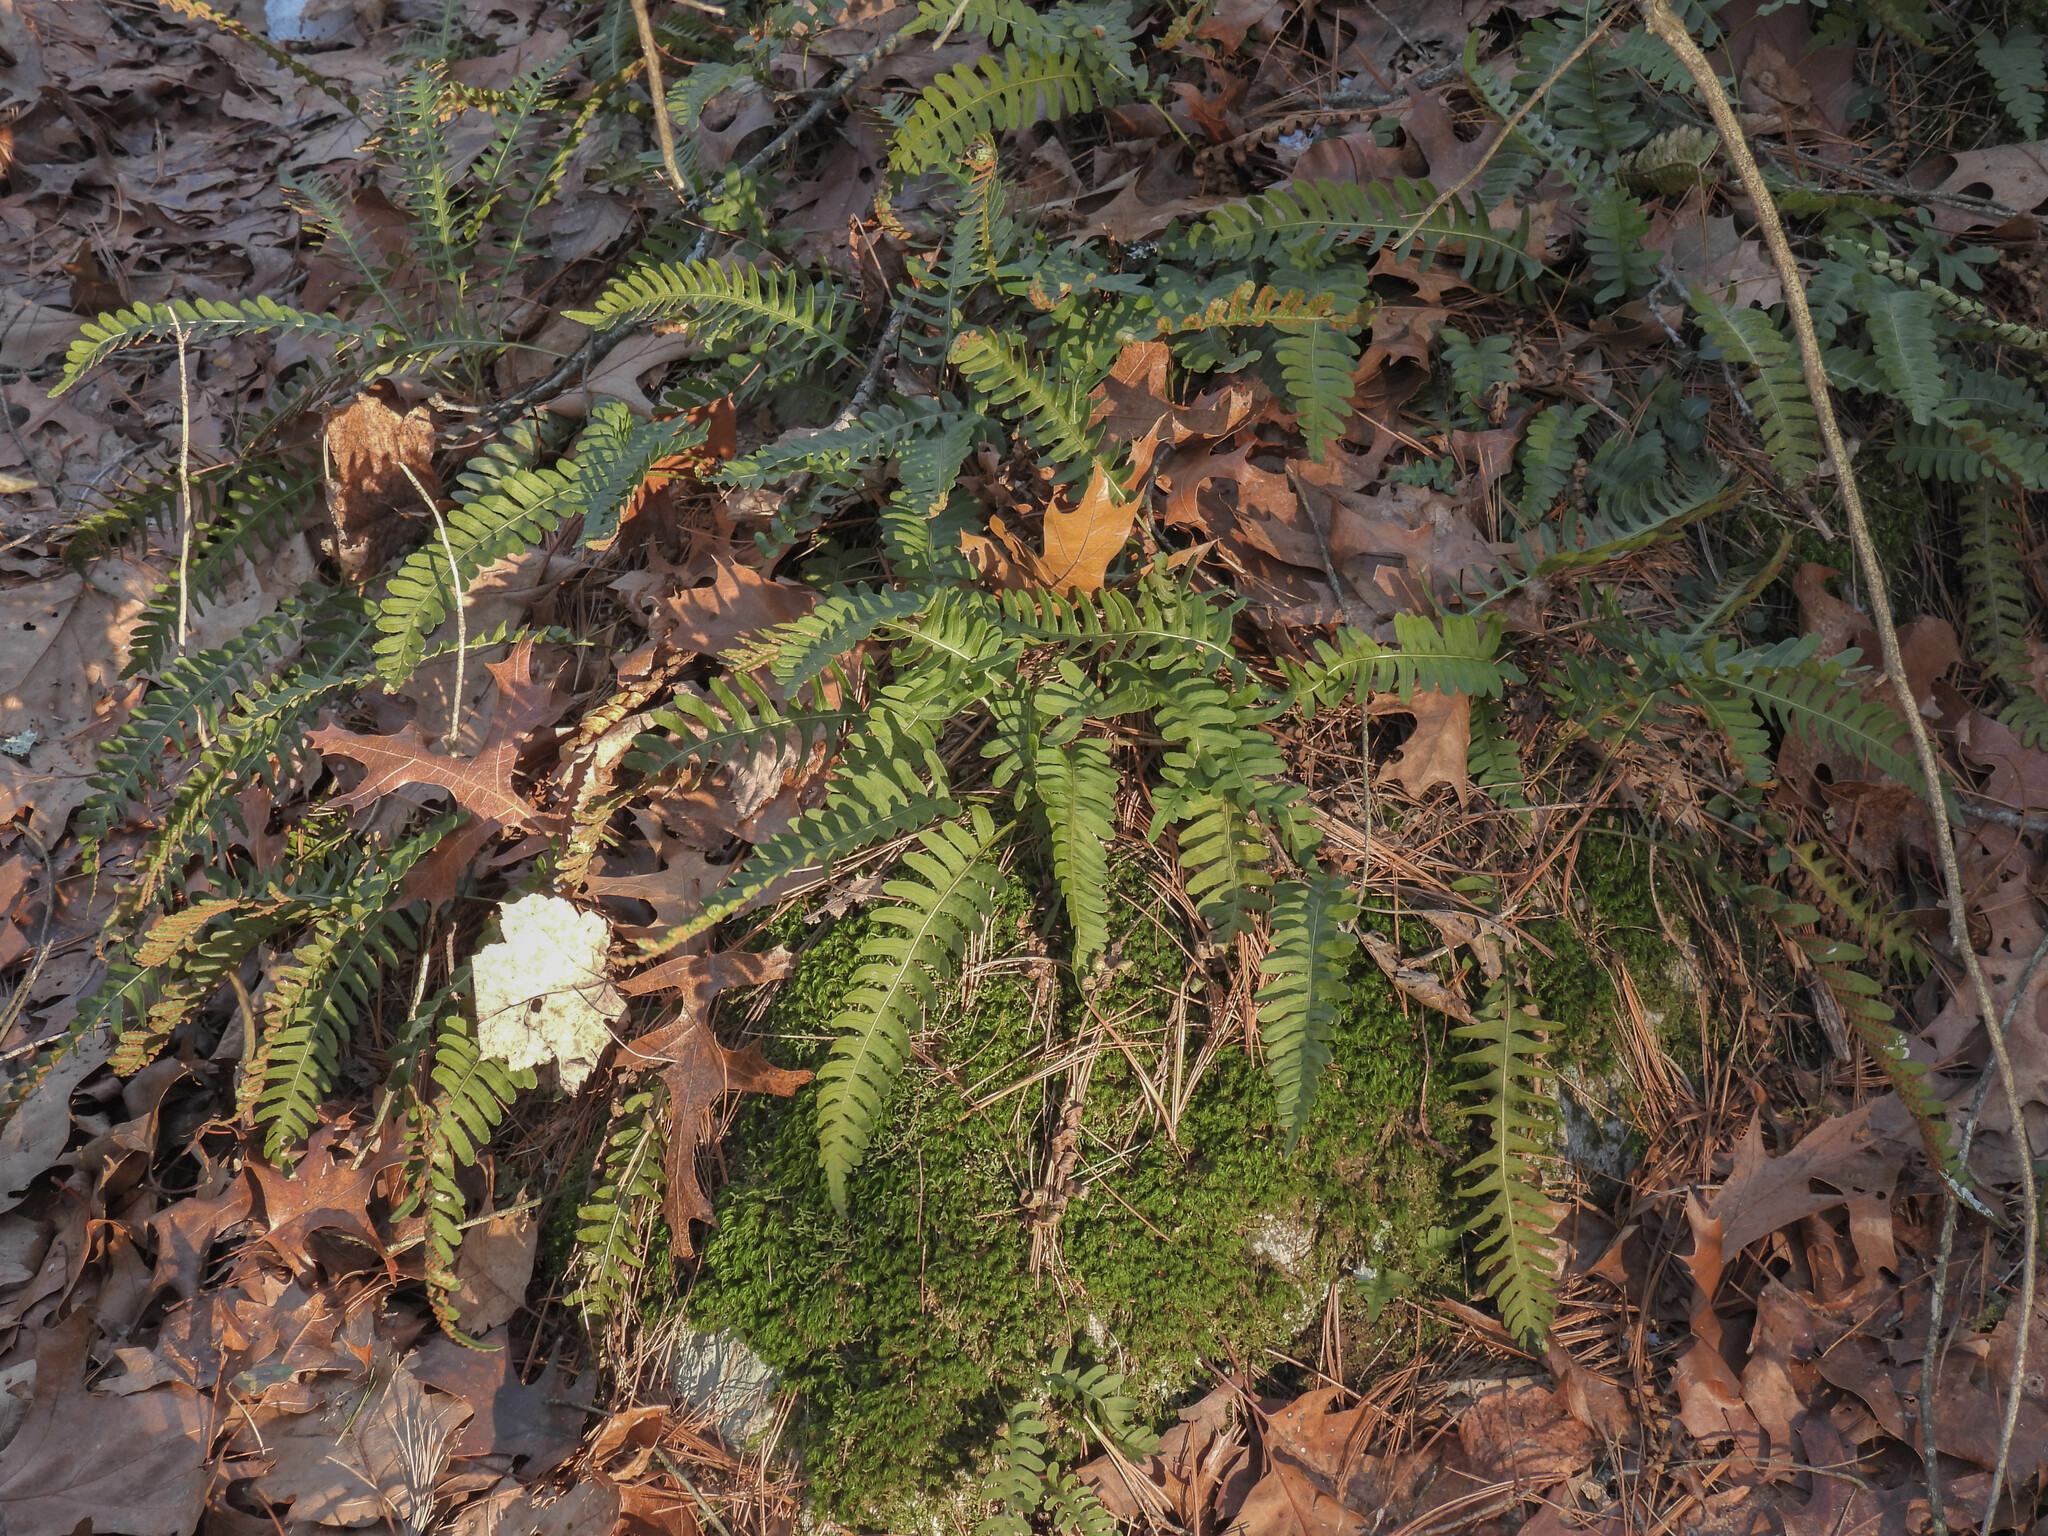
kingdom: Plantae
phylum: Tracheophyta
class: Polypodiopsida
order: Polypodiales
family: Polypodiaceae
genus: Polypodium
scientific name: Polypodium virginianum
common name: American wall fern
